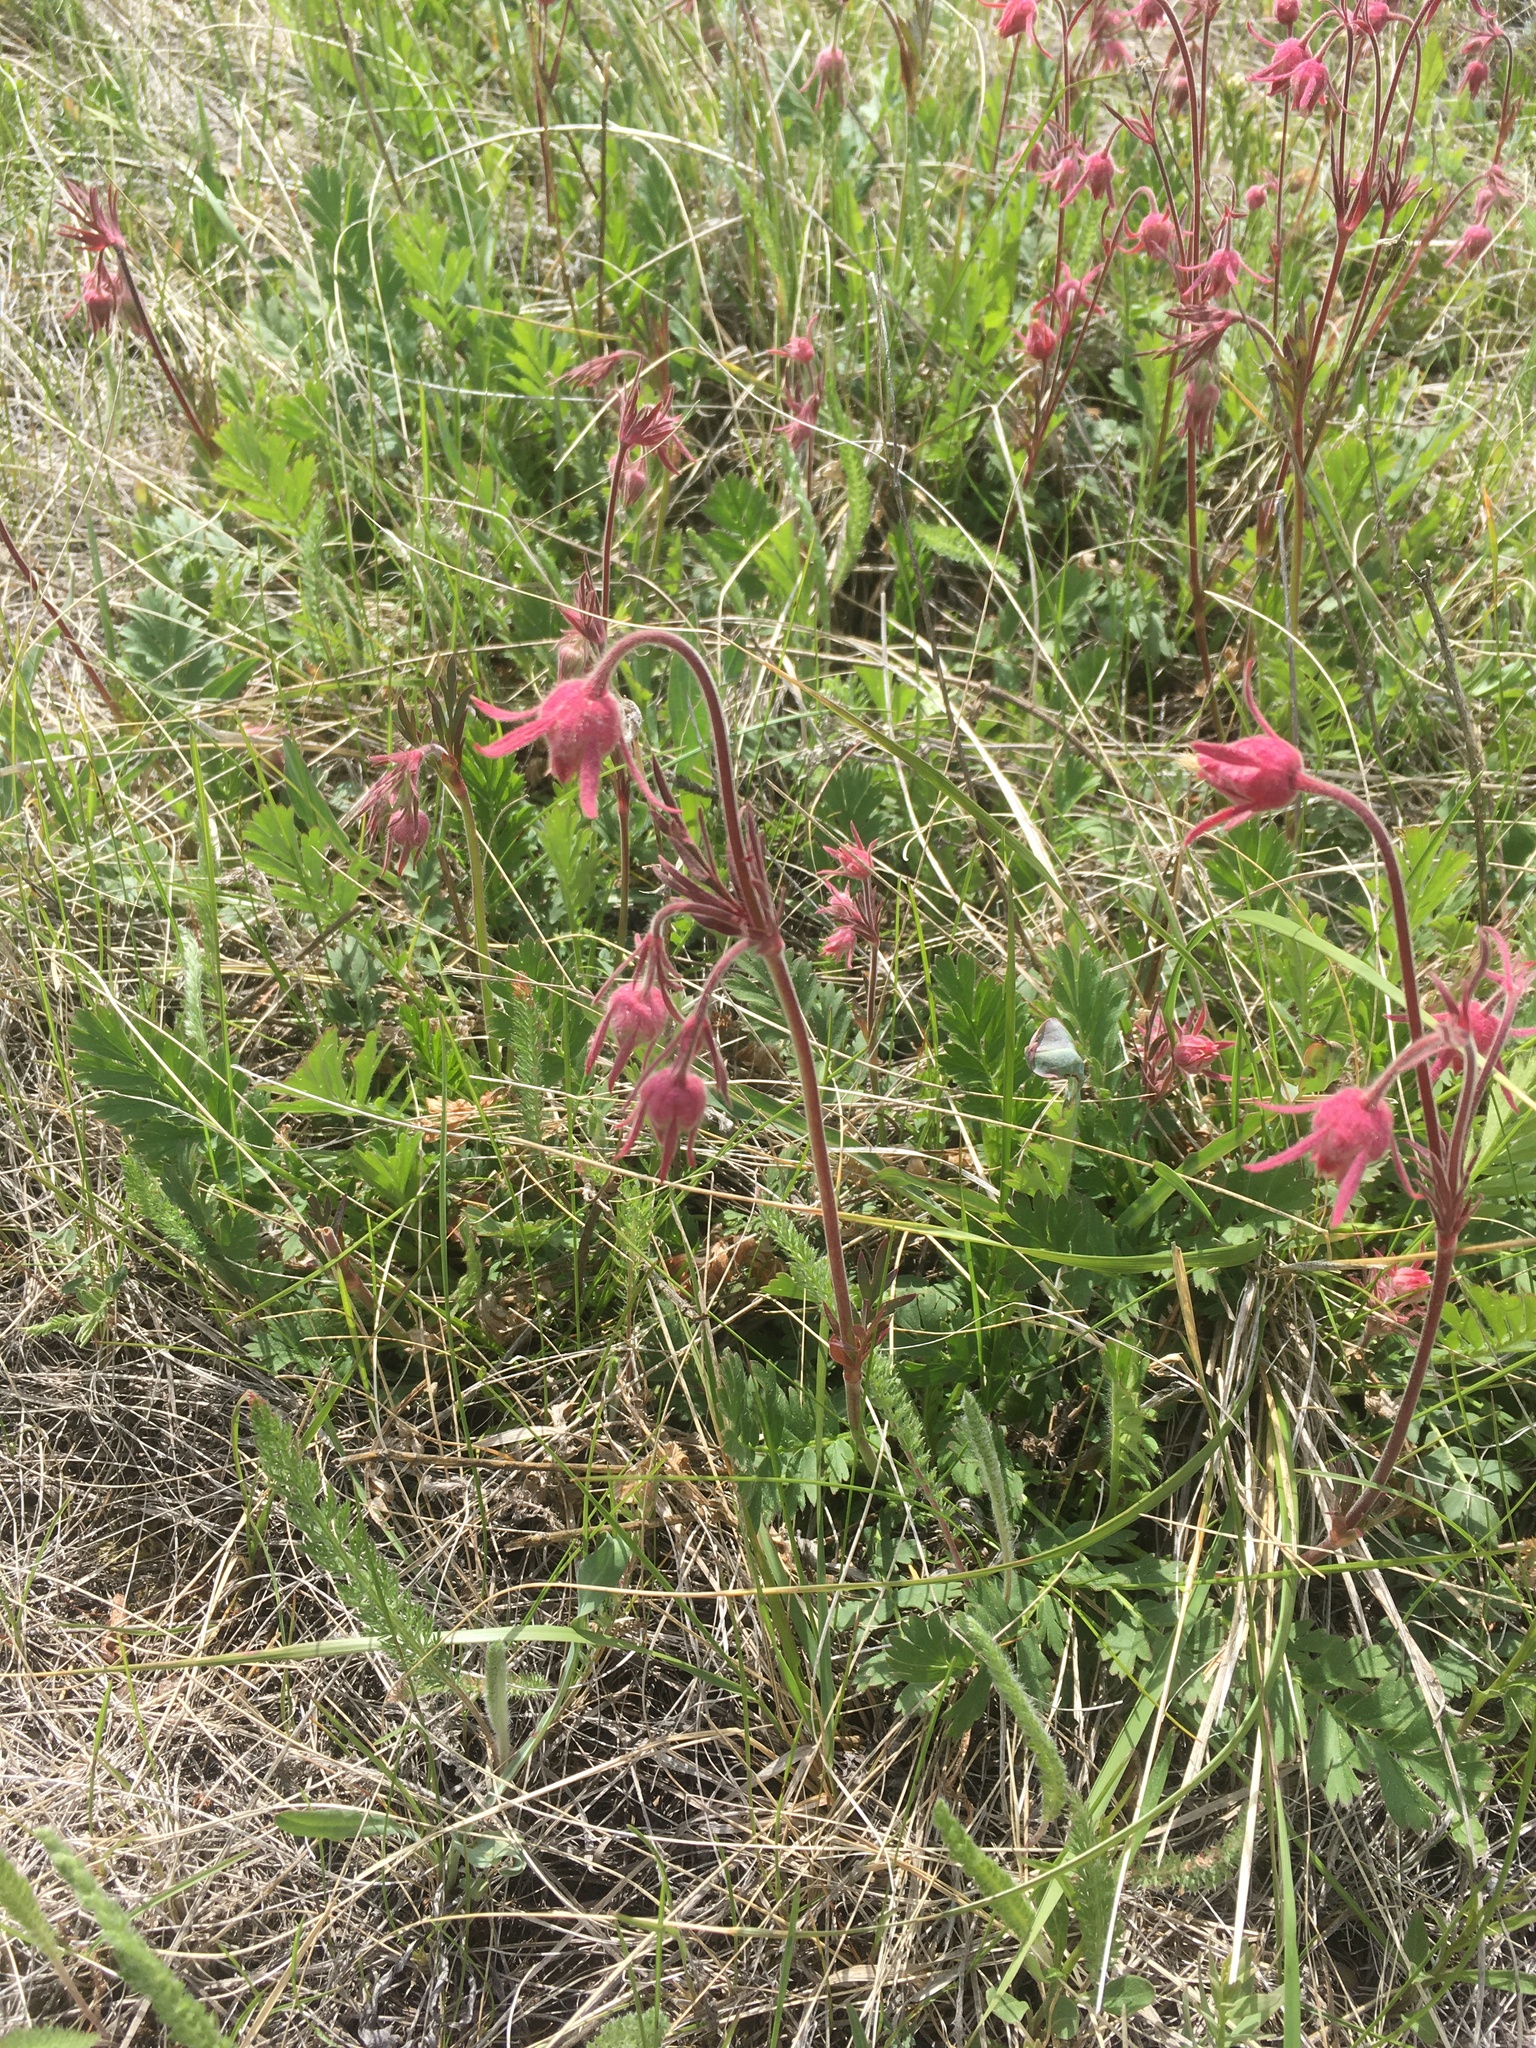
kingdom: Plantae
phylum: Tracheophyta
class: Magnoliopsida
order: Rosales
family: Rosaceae
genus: Geum
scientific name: Geum triflorum
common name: Old man's whiskers
